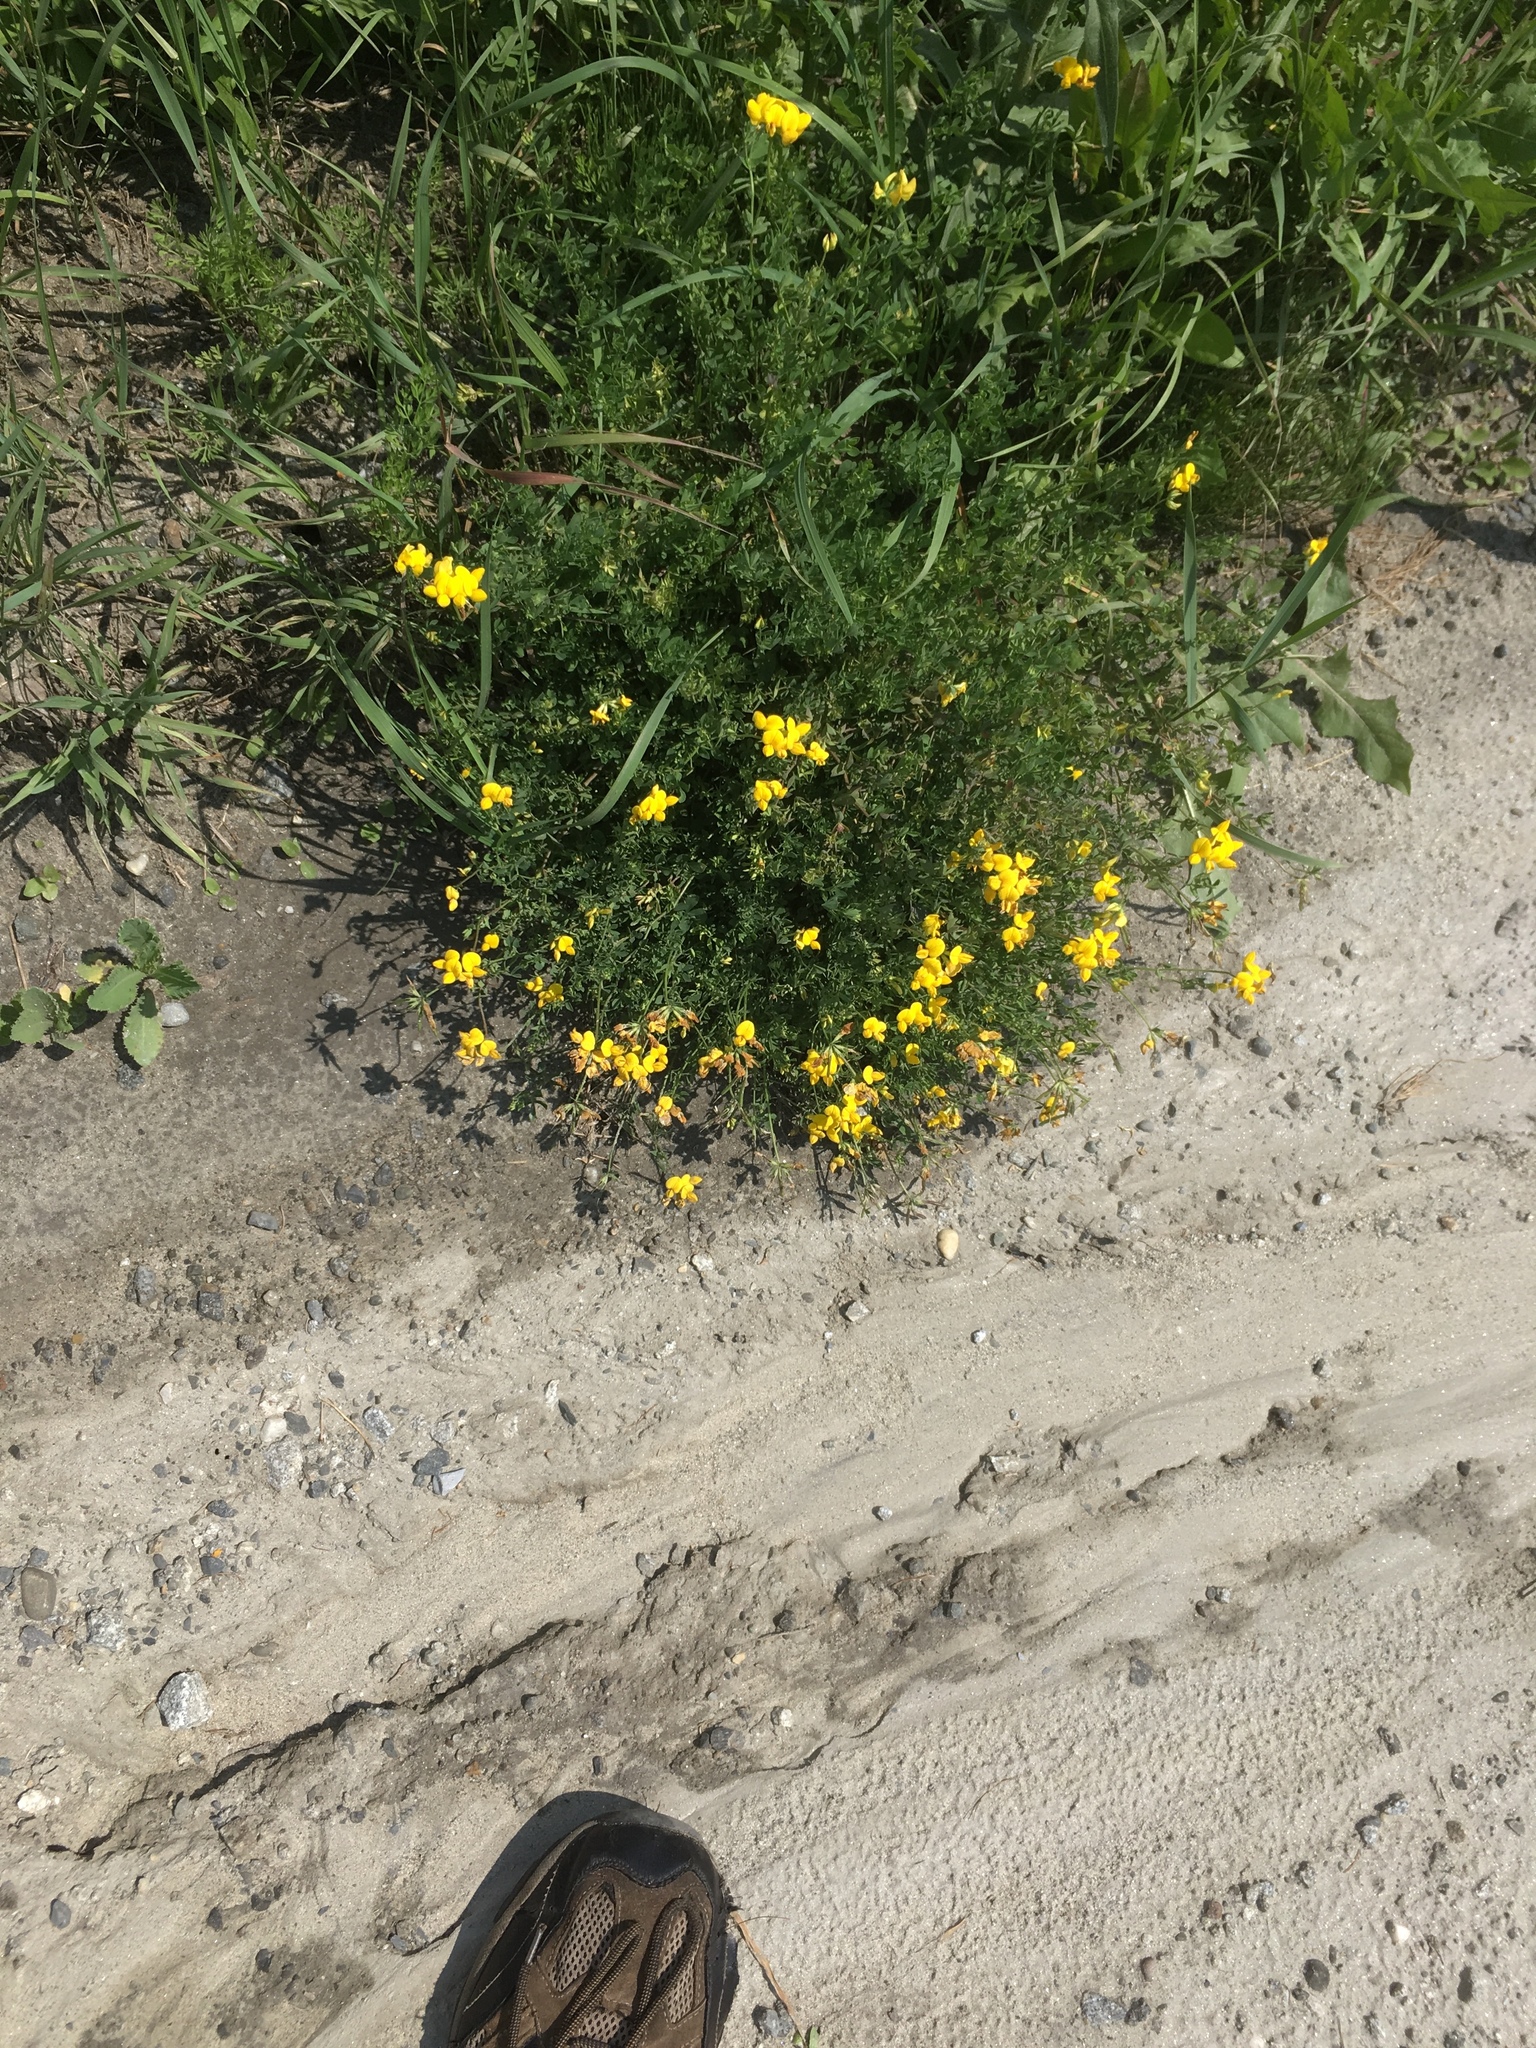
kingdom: Plantae
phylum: Tracheophyta
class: Magnoliopsida
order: Fabales
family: Fabaceae
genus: Lotus
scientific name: Lotus corniculatus
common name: Common bird's-foot-trefoil
